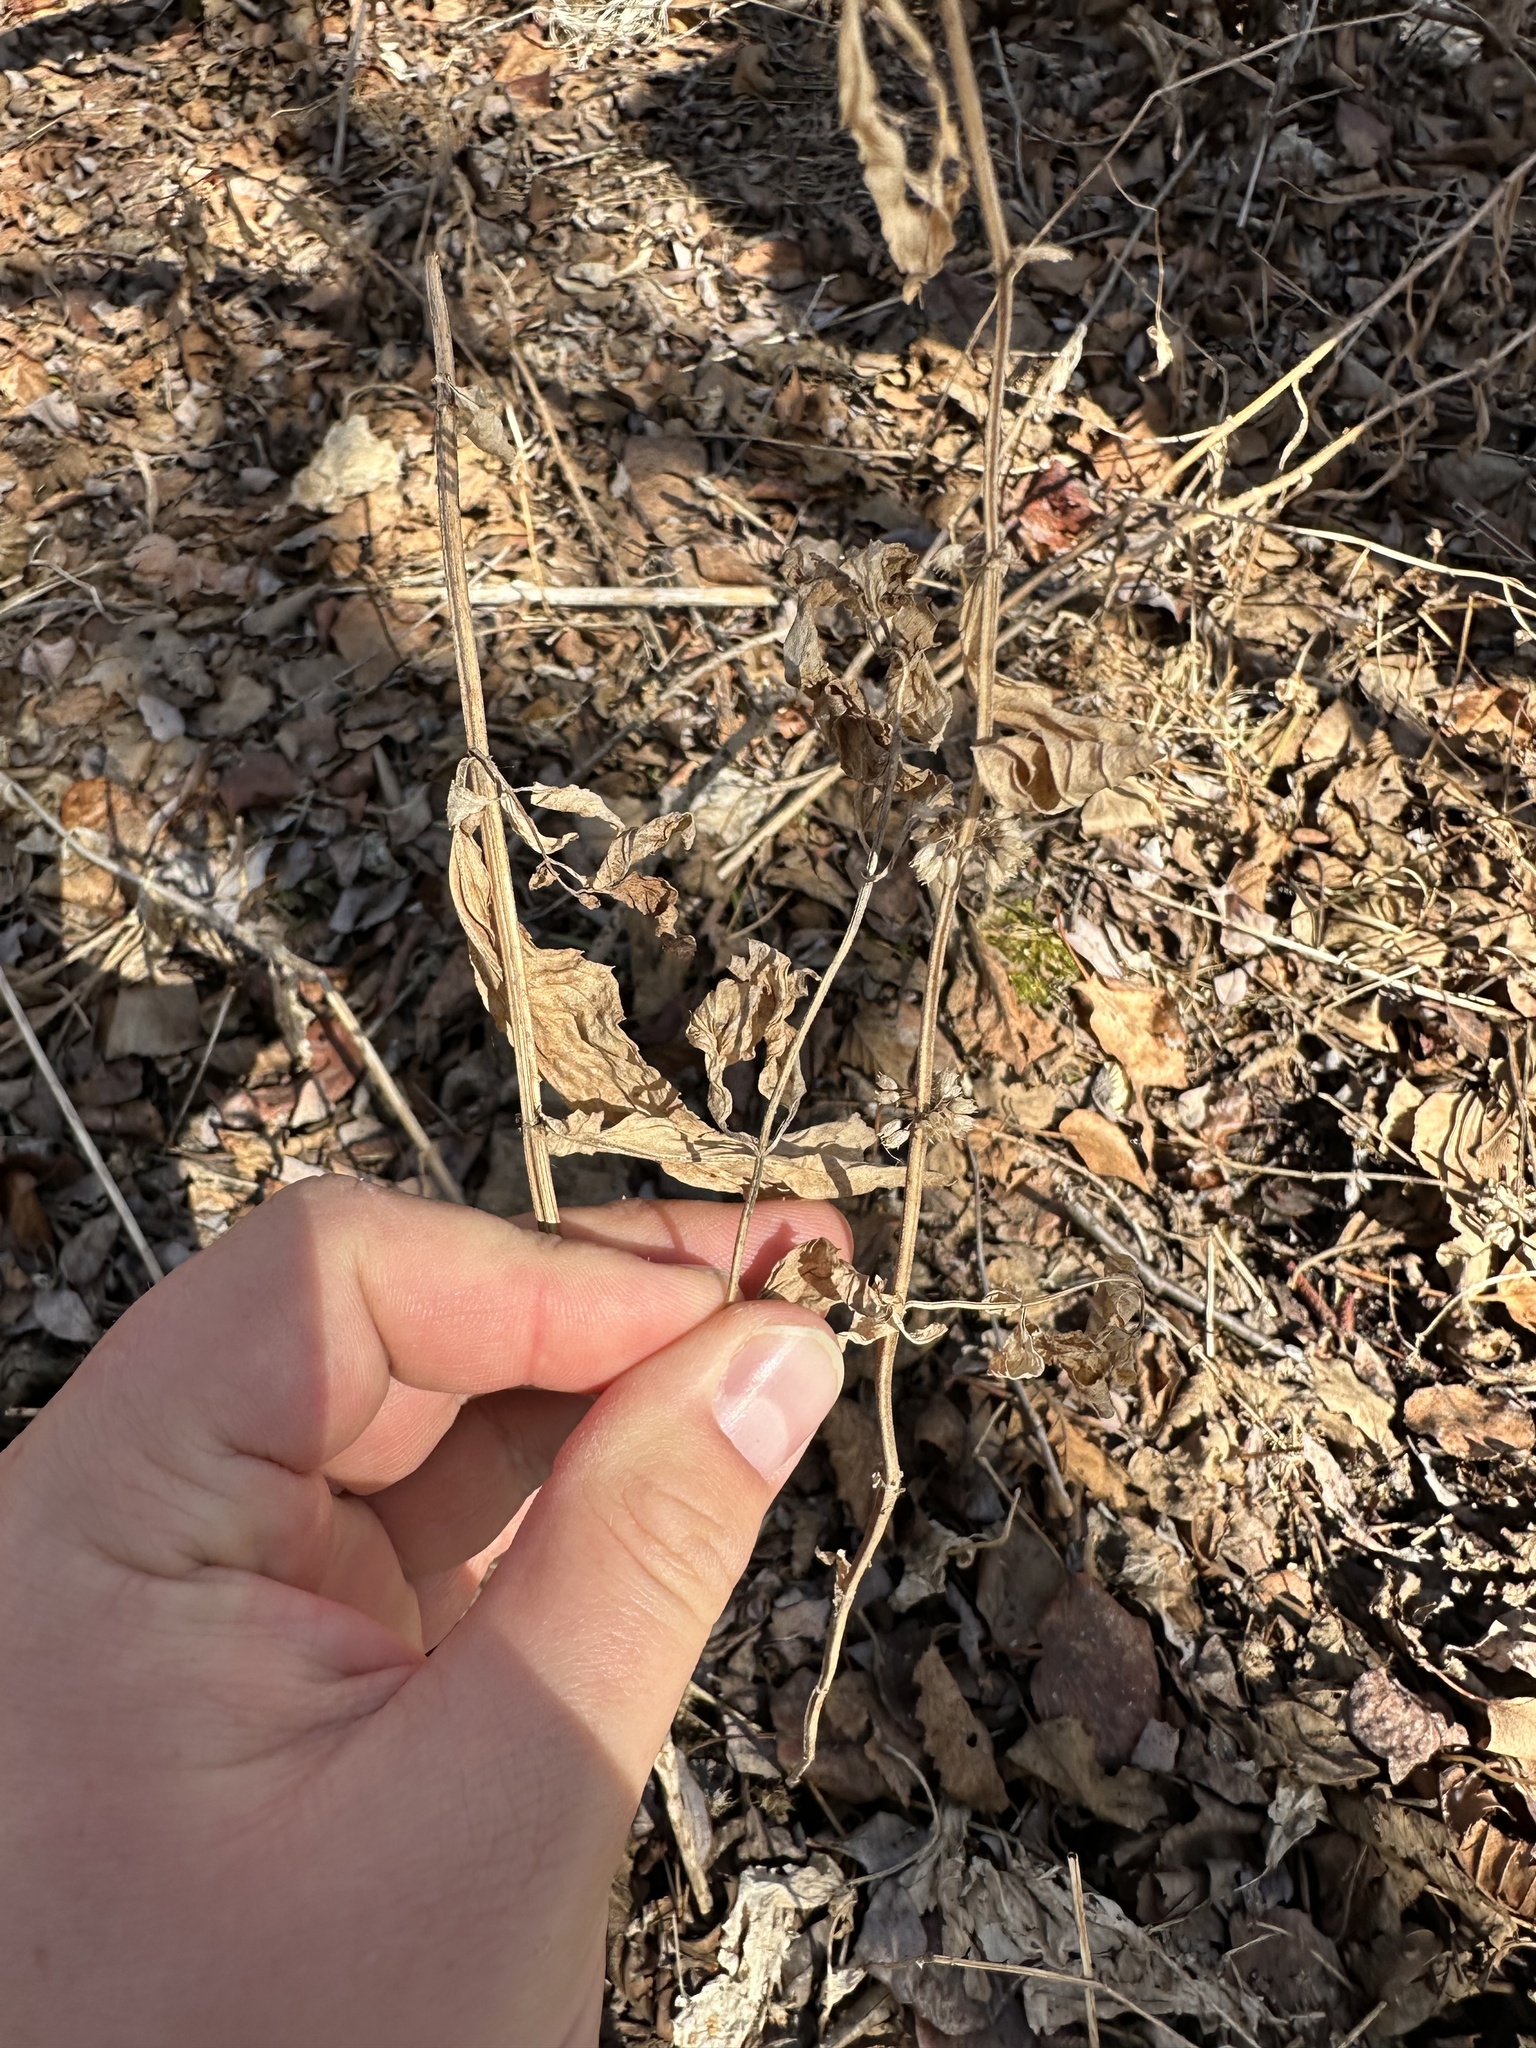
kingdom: Plantae
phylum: Tracheophyta
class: Magnoliopsida
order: Lamiales
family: Lamiaceae
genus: Mentha
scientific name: Mentha canadensis
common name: American corn mint
